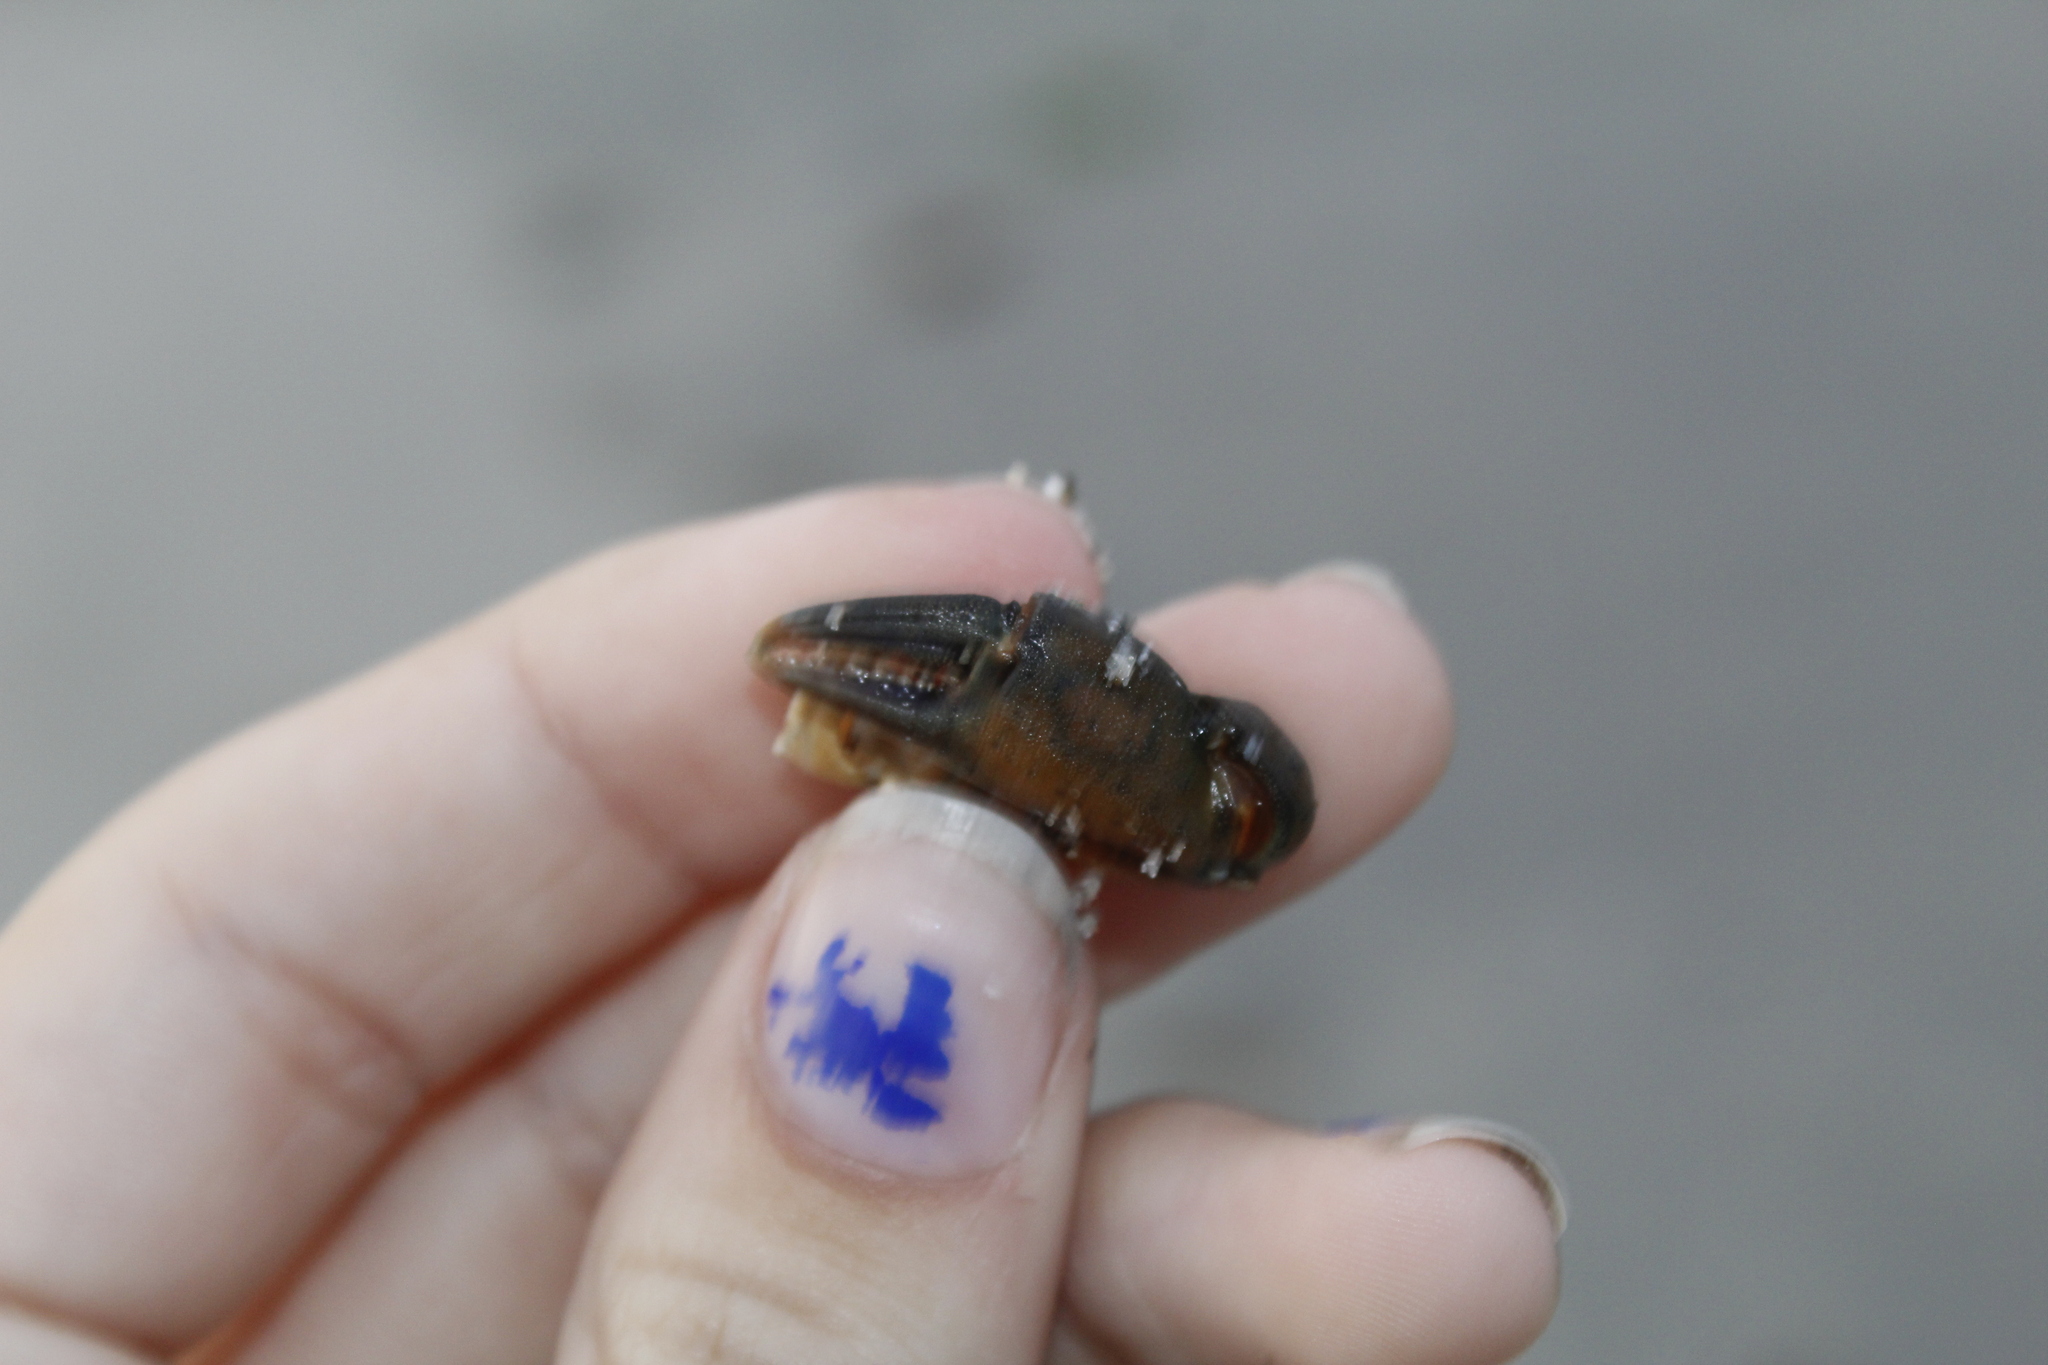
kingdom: Animalia
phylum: Arthropoda
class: Malacostraca
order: Decapoda
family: Carcinidae
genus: Carcinus
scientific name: Carcinus maenas
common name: European green crab
